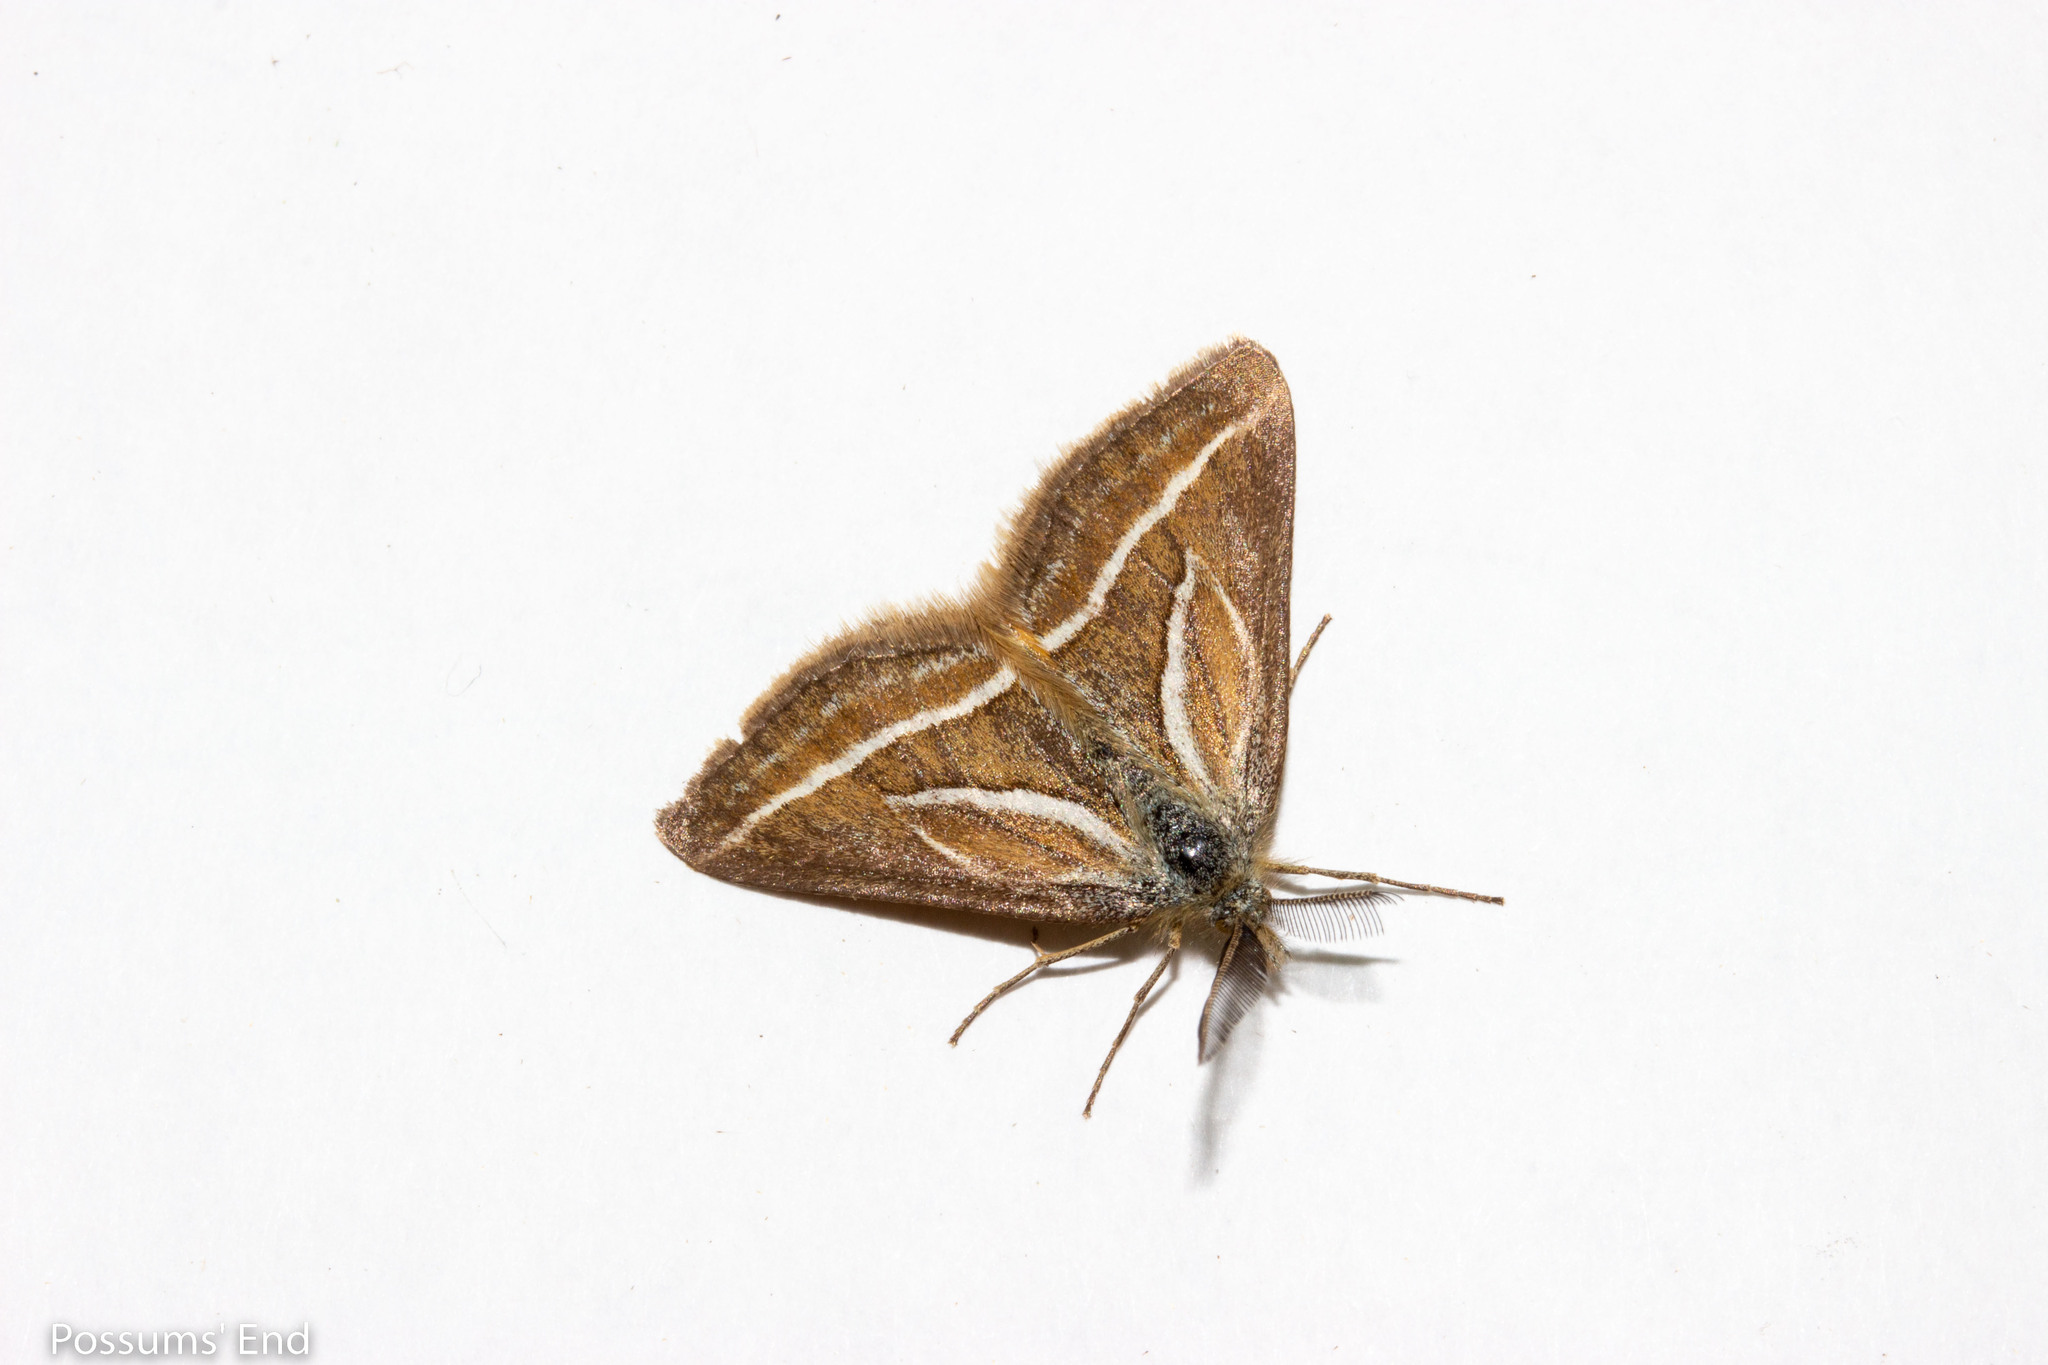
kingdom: Animalia
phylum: Arthropoda
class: Insecta
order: Lepidoptera
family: Geometridae
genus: Aponotoreas
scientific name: Aponotoreas insignis
